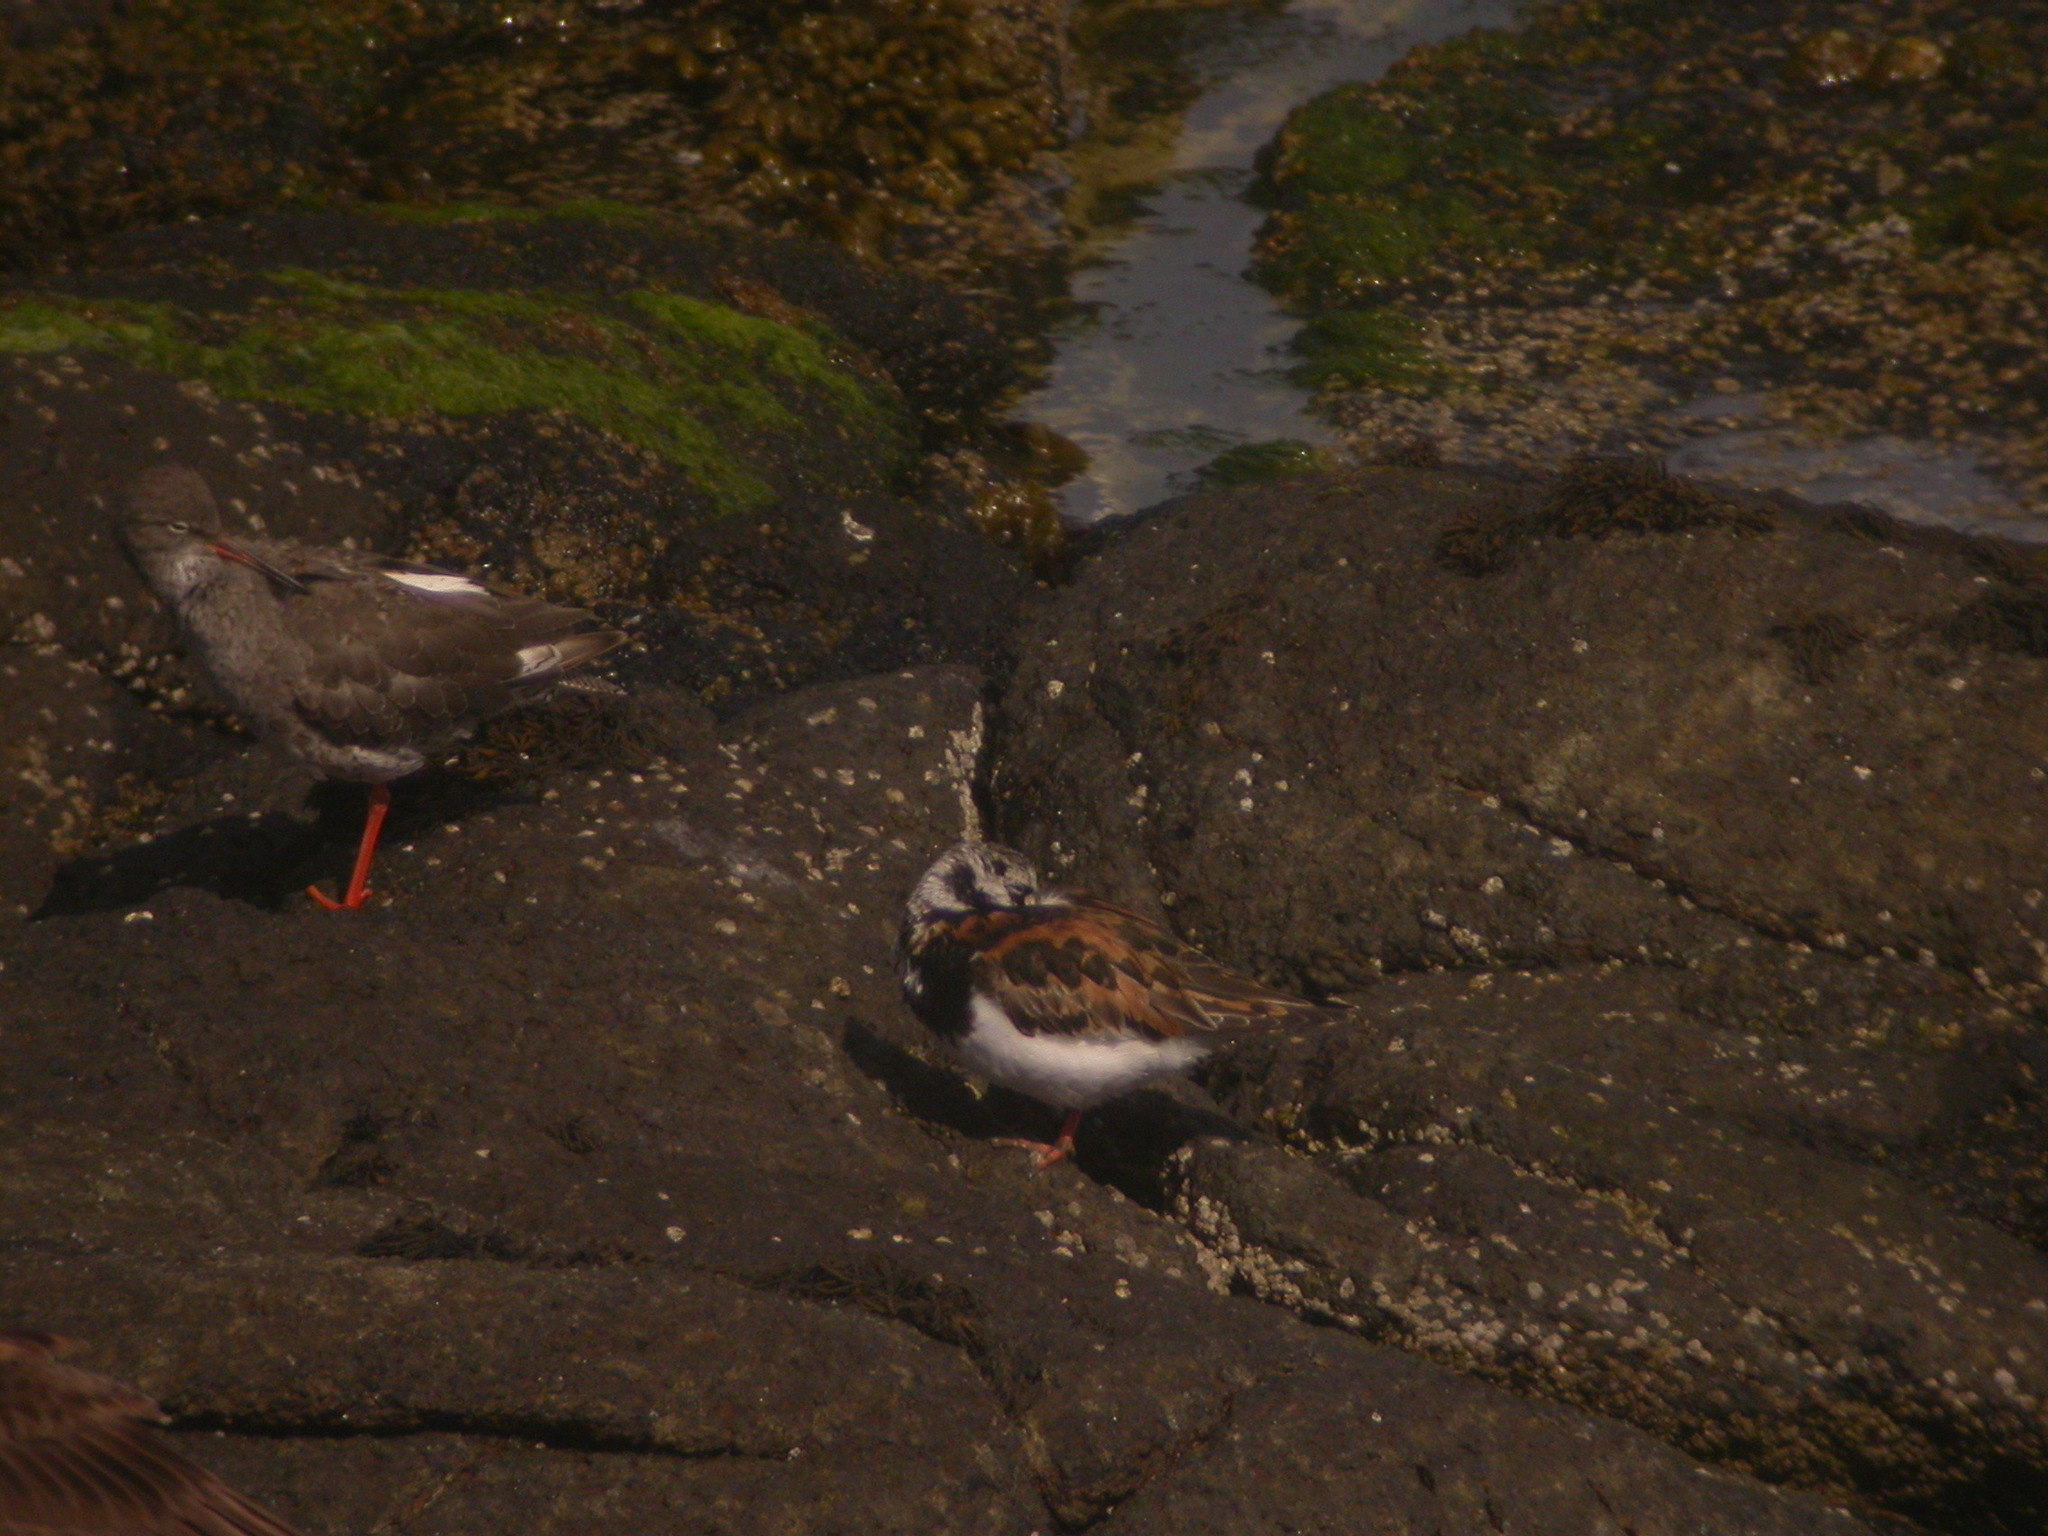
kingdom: Animalia
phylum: Chordata
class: Aves
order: Charadriiformes
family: Scolopacidae
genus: Arenaria
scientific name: Arenaria interpres
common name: Ruddy turnstone
